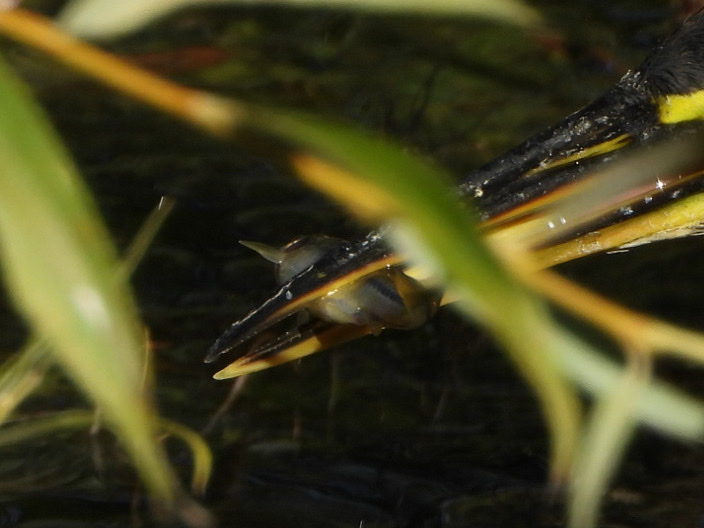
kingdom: Animalia
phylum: Chordata
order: Cypriniformes
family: Cyprinidae
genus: Pimephales
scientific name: Pimephales promelas
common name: Fathead minnow
